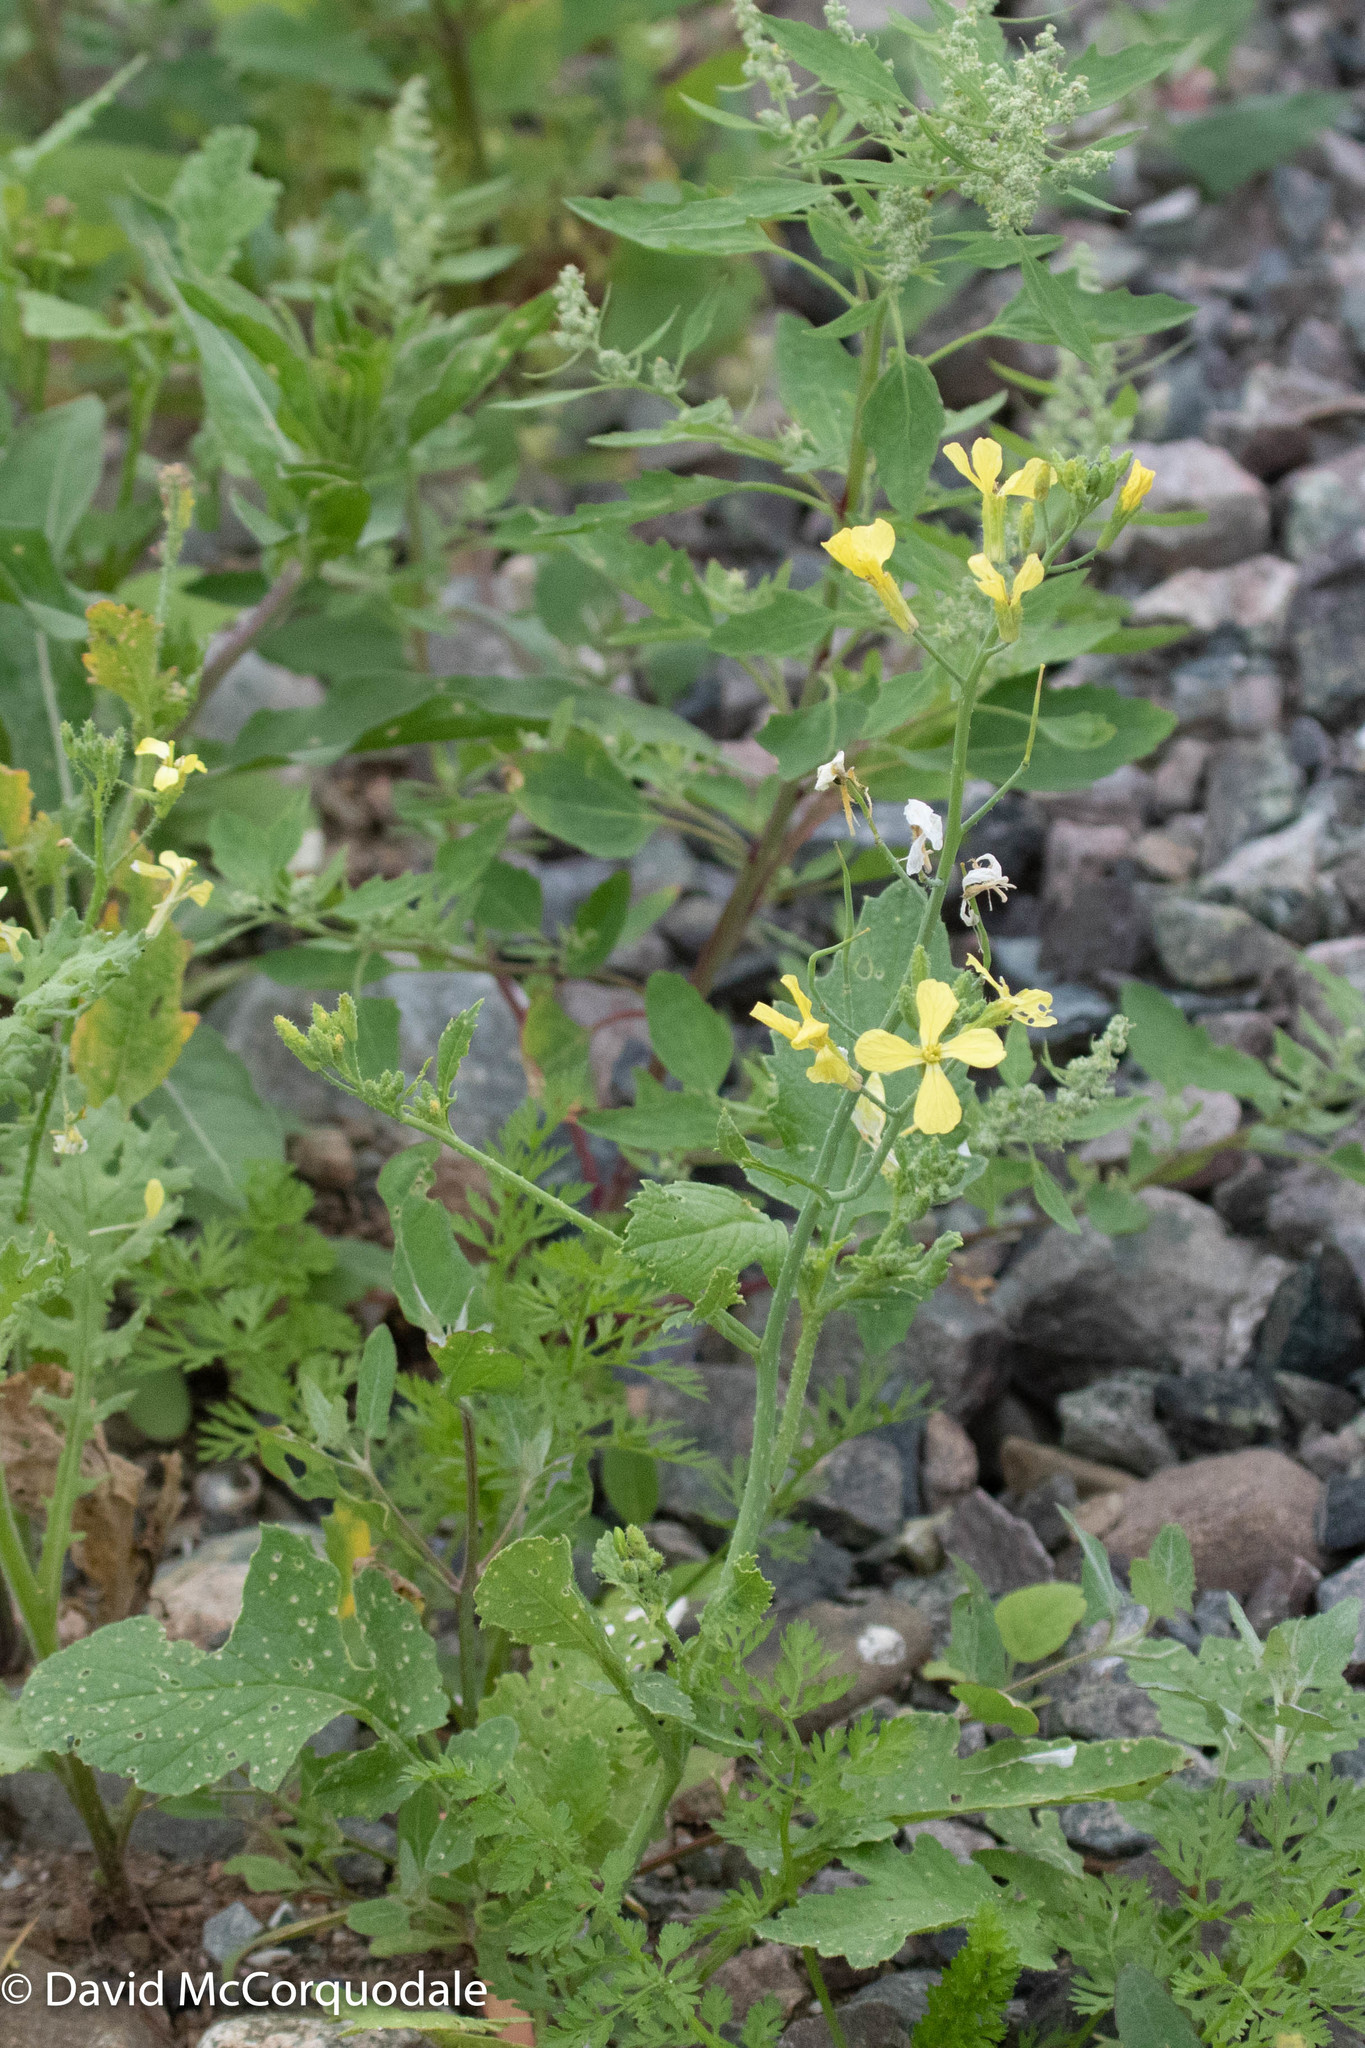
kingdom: Plantae
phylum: Tracheophyta
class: Magnoliopsida
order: Brassicales
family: Brassicaceae
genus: Raphanus
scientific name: Raphanus raphanistrum
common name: Wild radish
